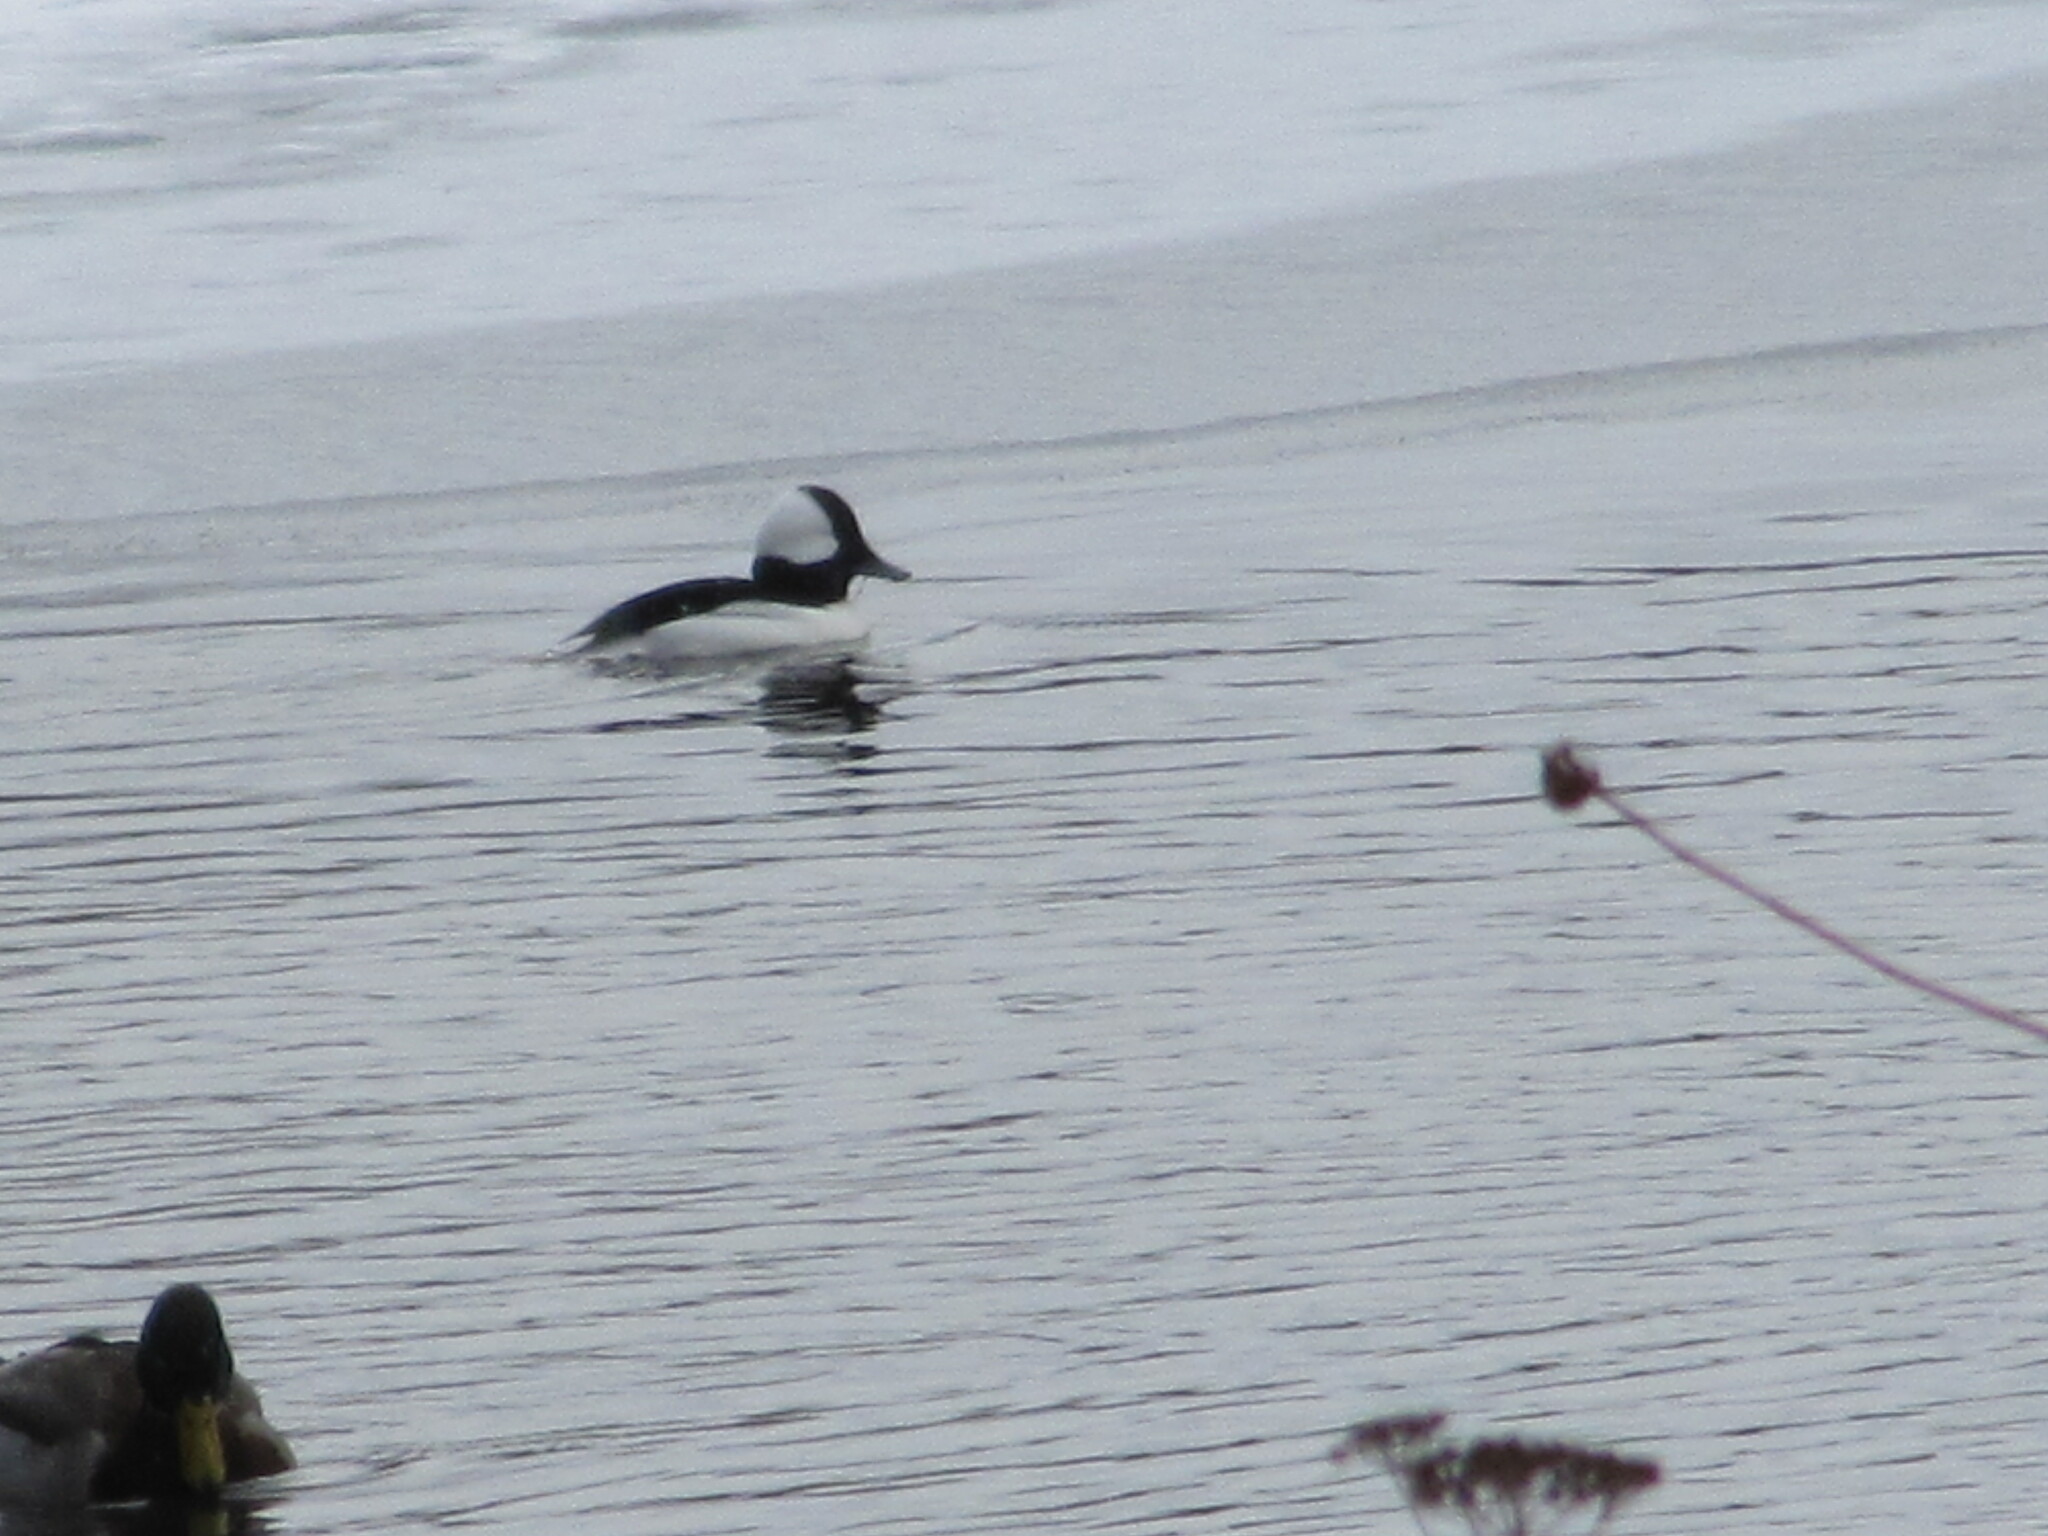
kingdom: Animalia
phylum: Chordata
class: Aves
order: Anseriformes
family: Anatidae
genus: Bucephala
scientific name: Bucephala albeola
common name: Bufflehead
